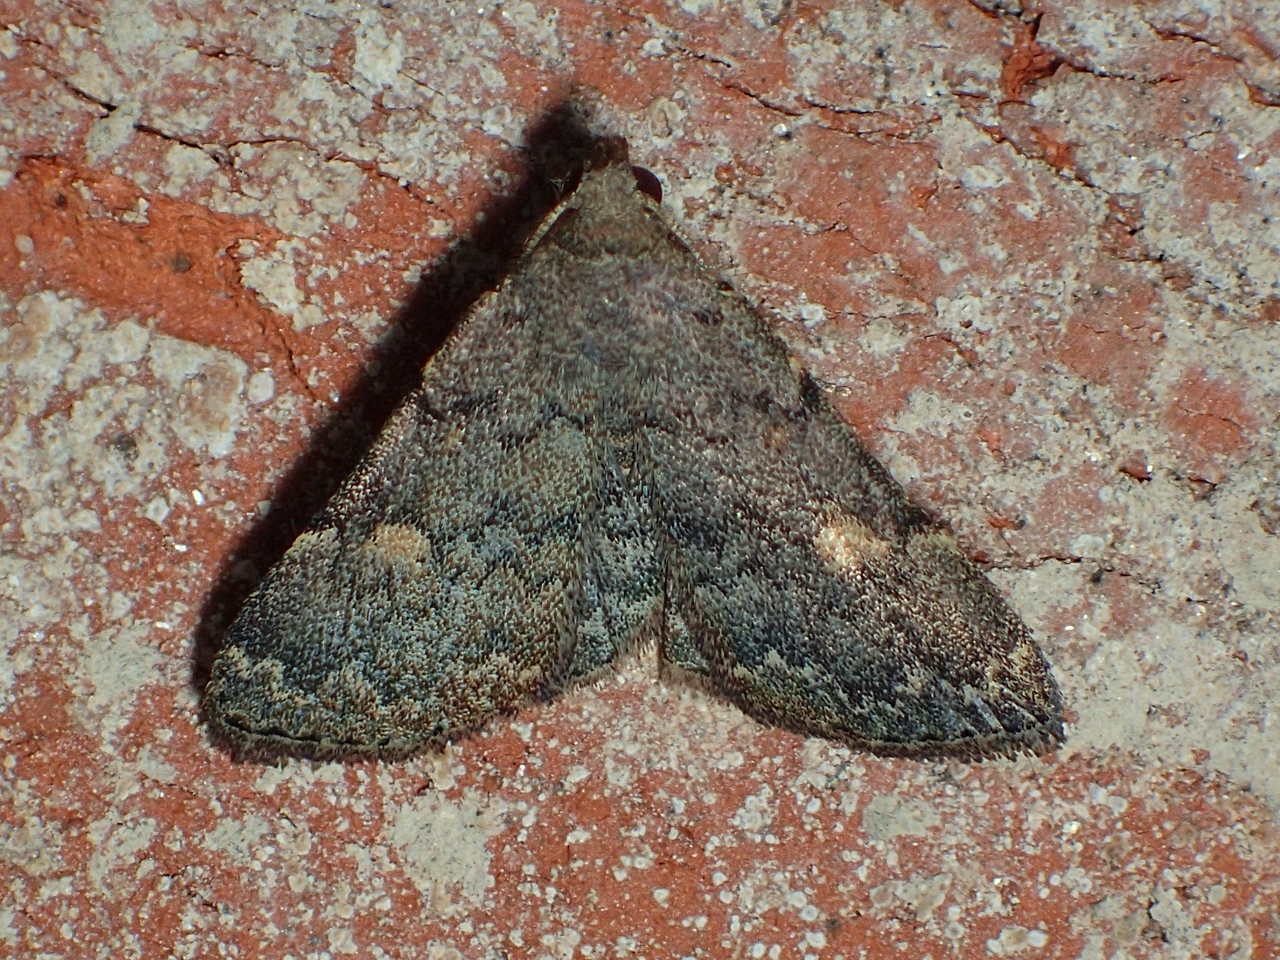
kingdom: Animalia
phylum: Arthropoda
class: Insecta
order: Lepidoptera
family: Erebidae
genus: Idia
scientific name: Idia aemula
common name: Common idia moth
